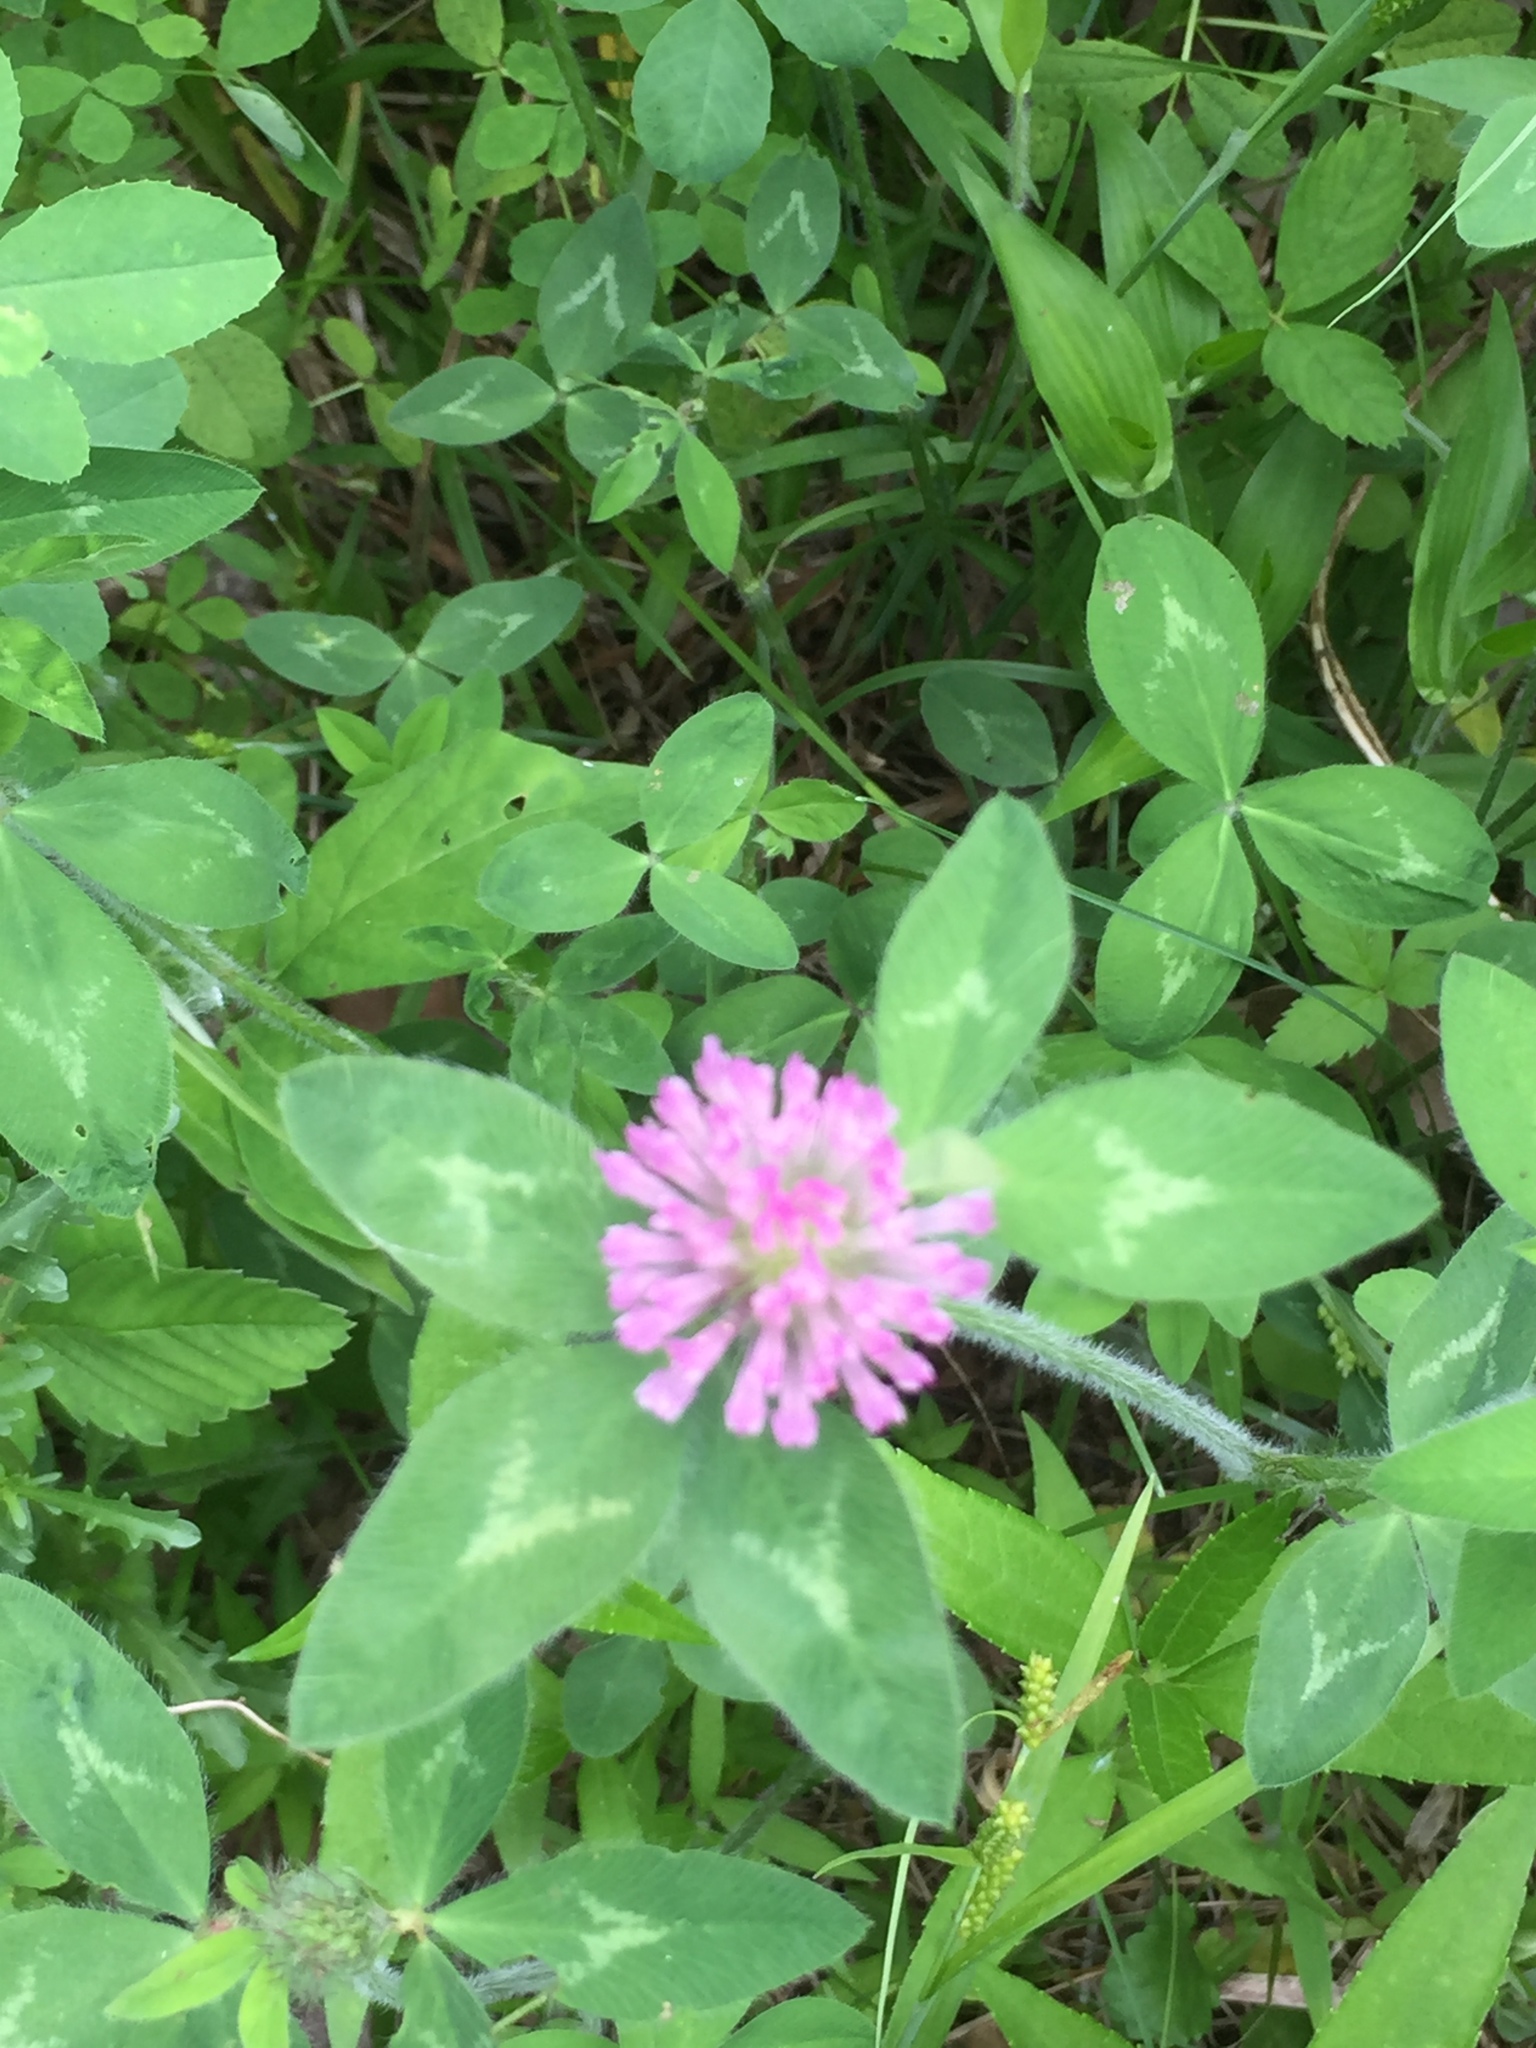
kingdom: Plantae
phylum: Tracheophyta
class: Magnoliopsida
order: Fabales
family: Fabaceae
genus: Trifolium
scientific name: Trifolium pratense
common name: Red clover
